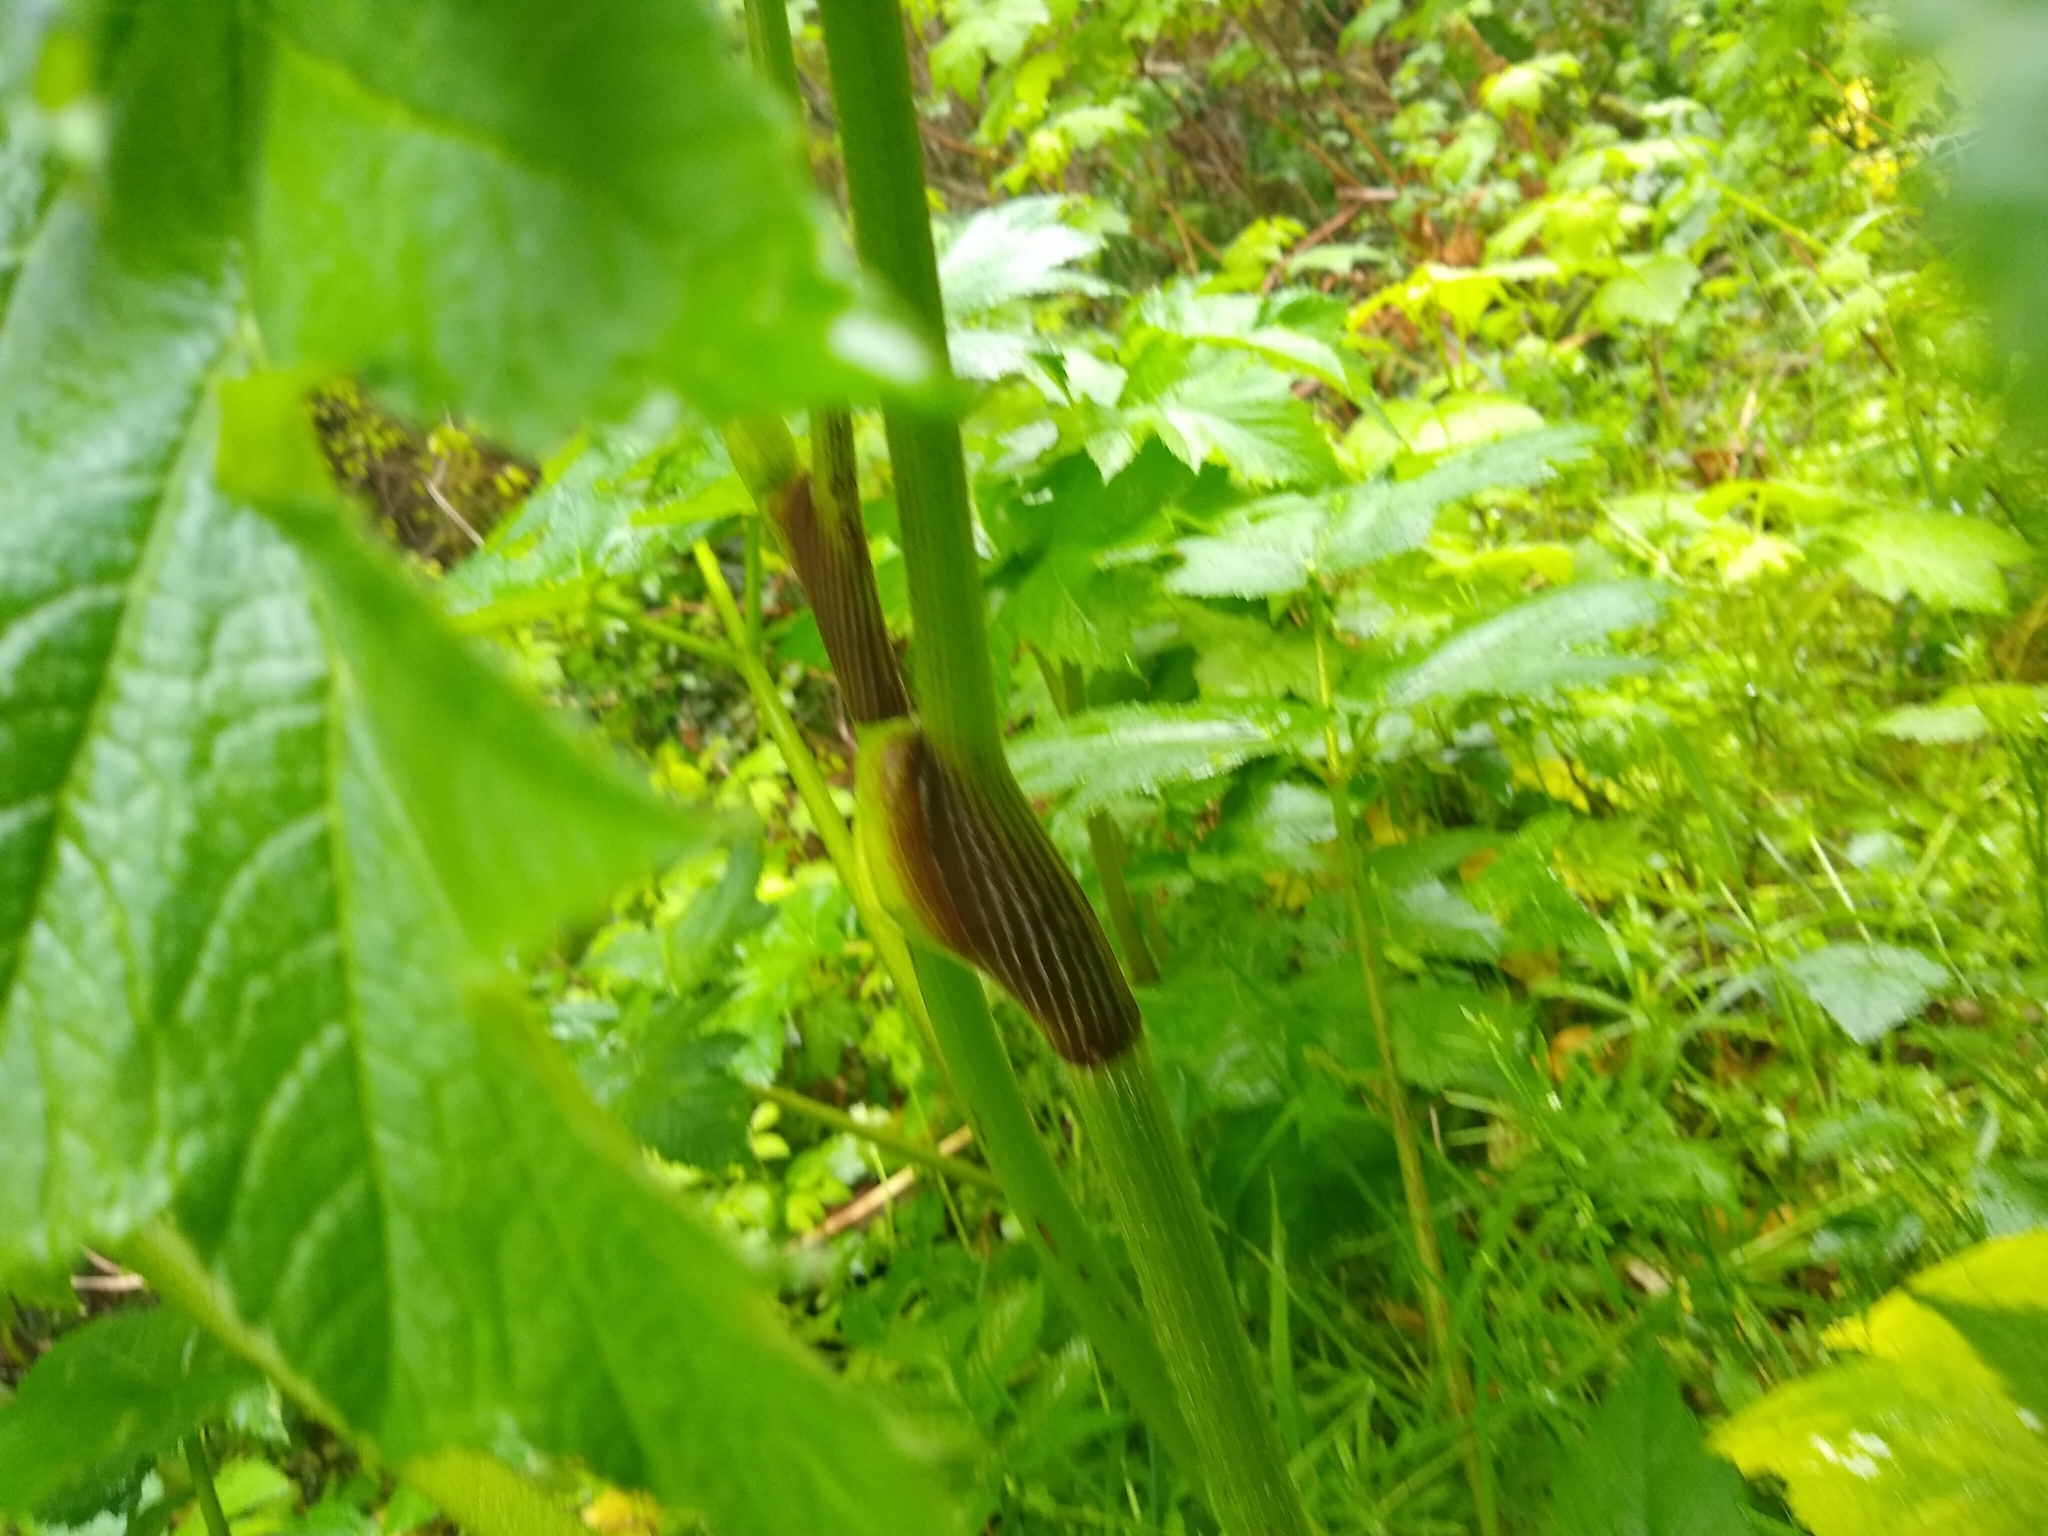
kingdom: Plantae
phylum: Tracheophyta
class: Magnoliopsida
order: Apiales
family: Apiaceae
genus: Heracleum
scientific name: Heracleum maximum
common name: American cow parsnip
